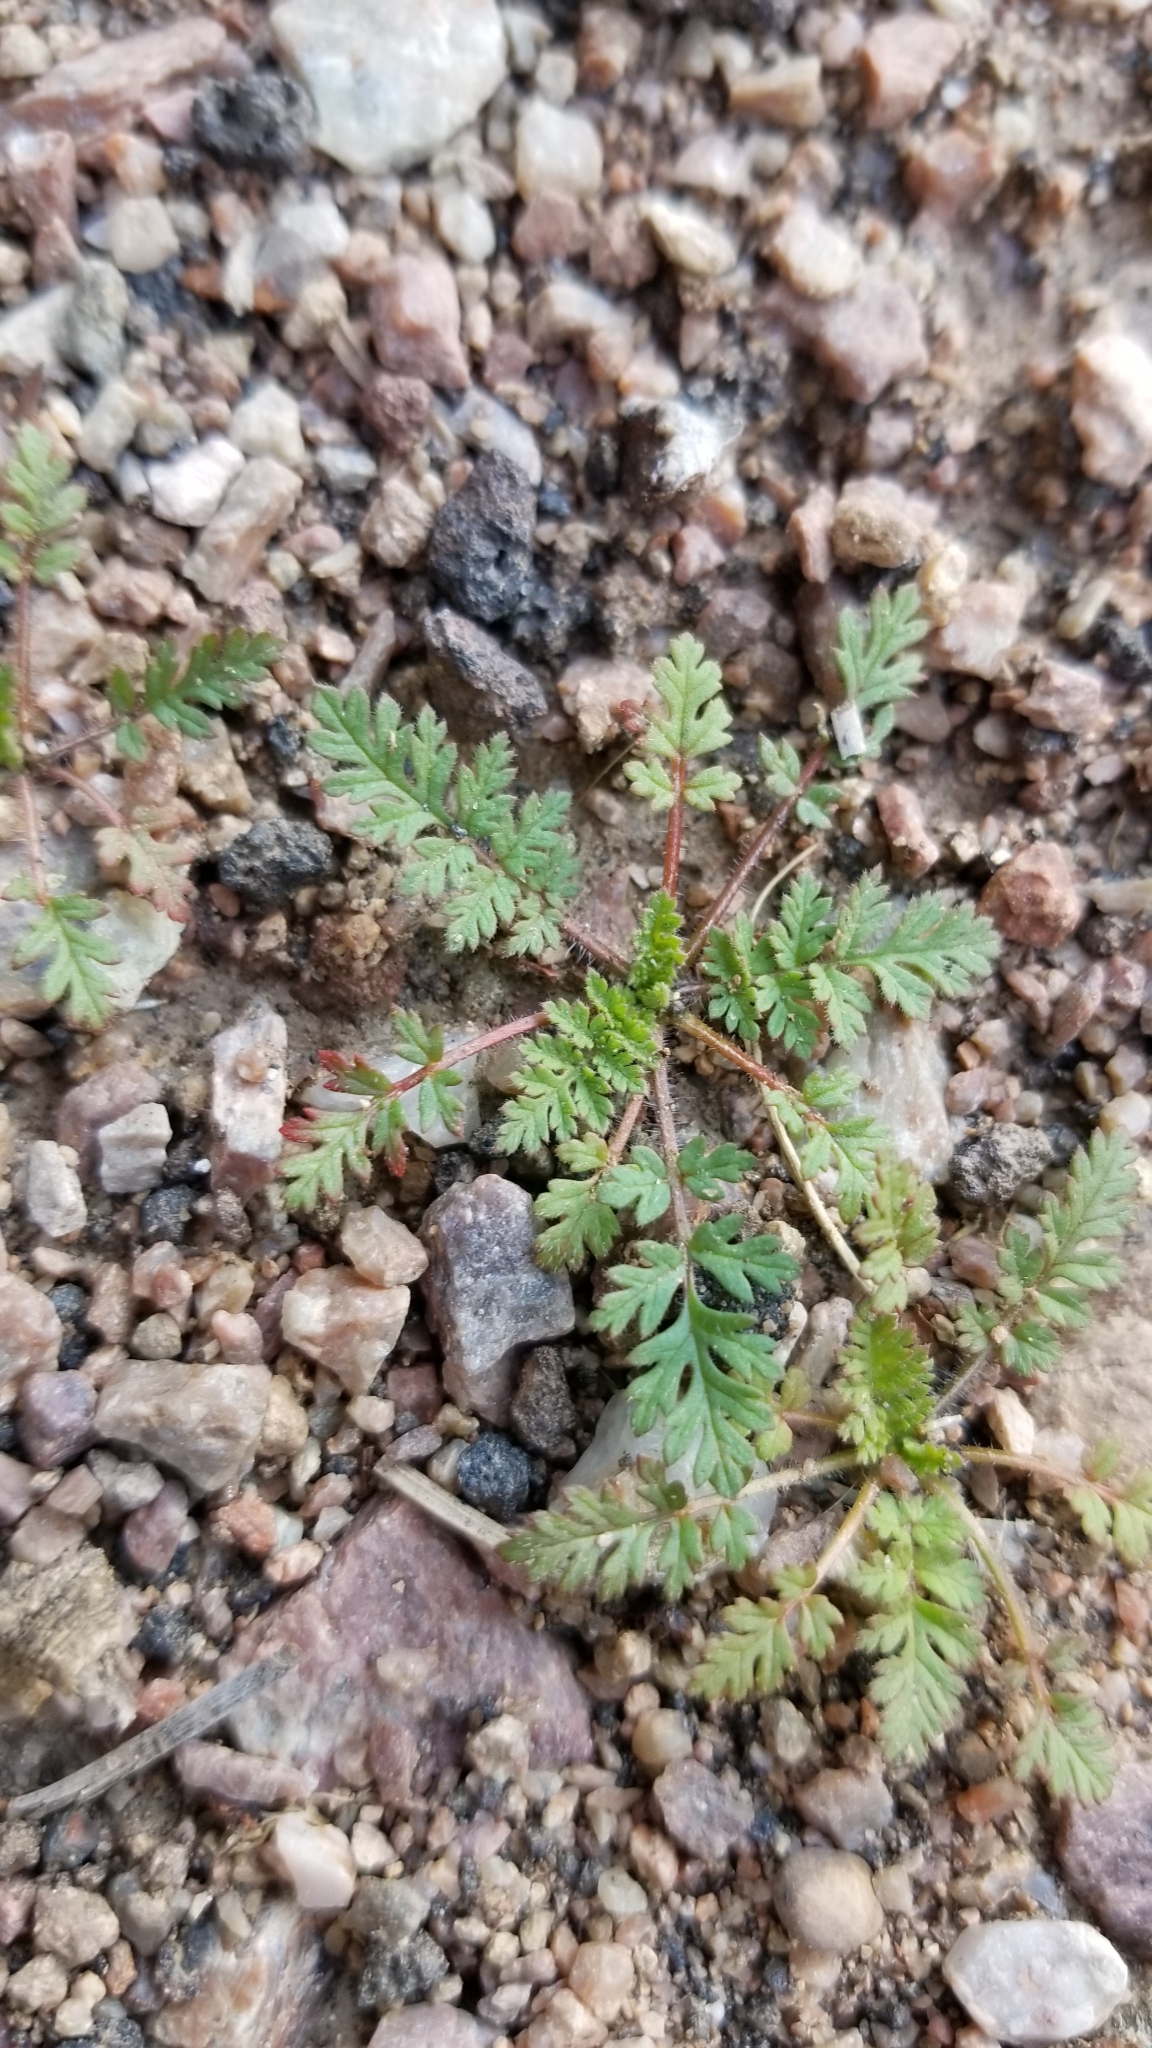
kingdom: Plantae
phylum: Tracheophyta
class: Magnoliopsida
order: Geraniales
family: Geraniaceae
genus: Erodium
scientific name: Erodium cicutarium
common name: Common stork's-bill
